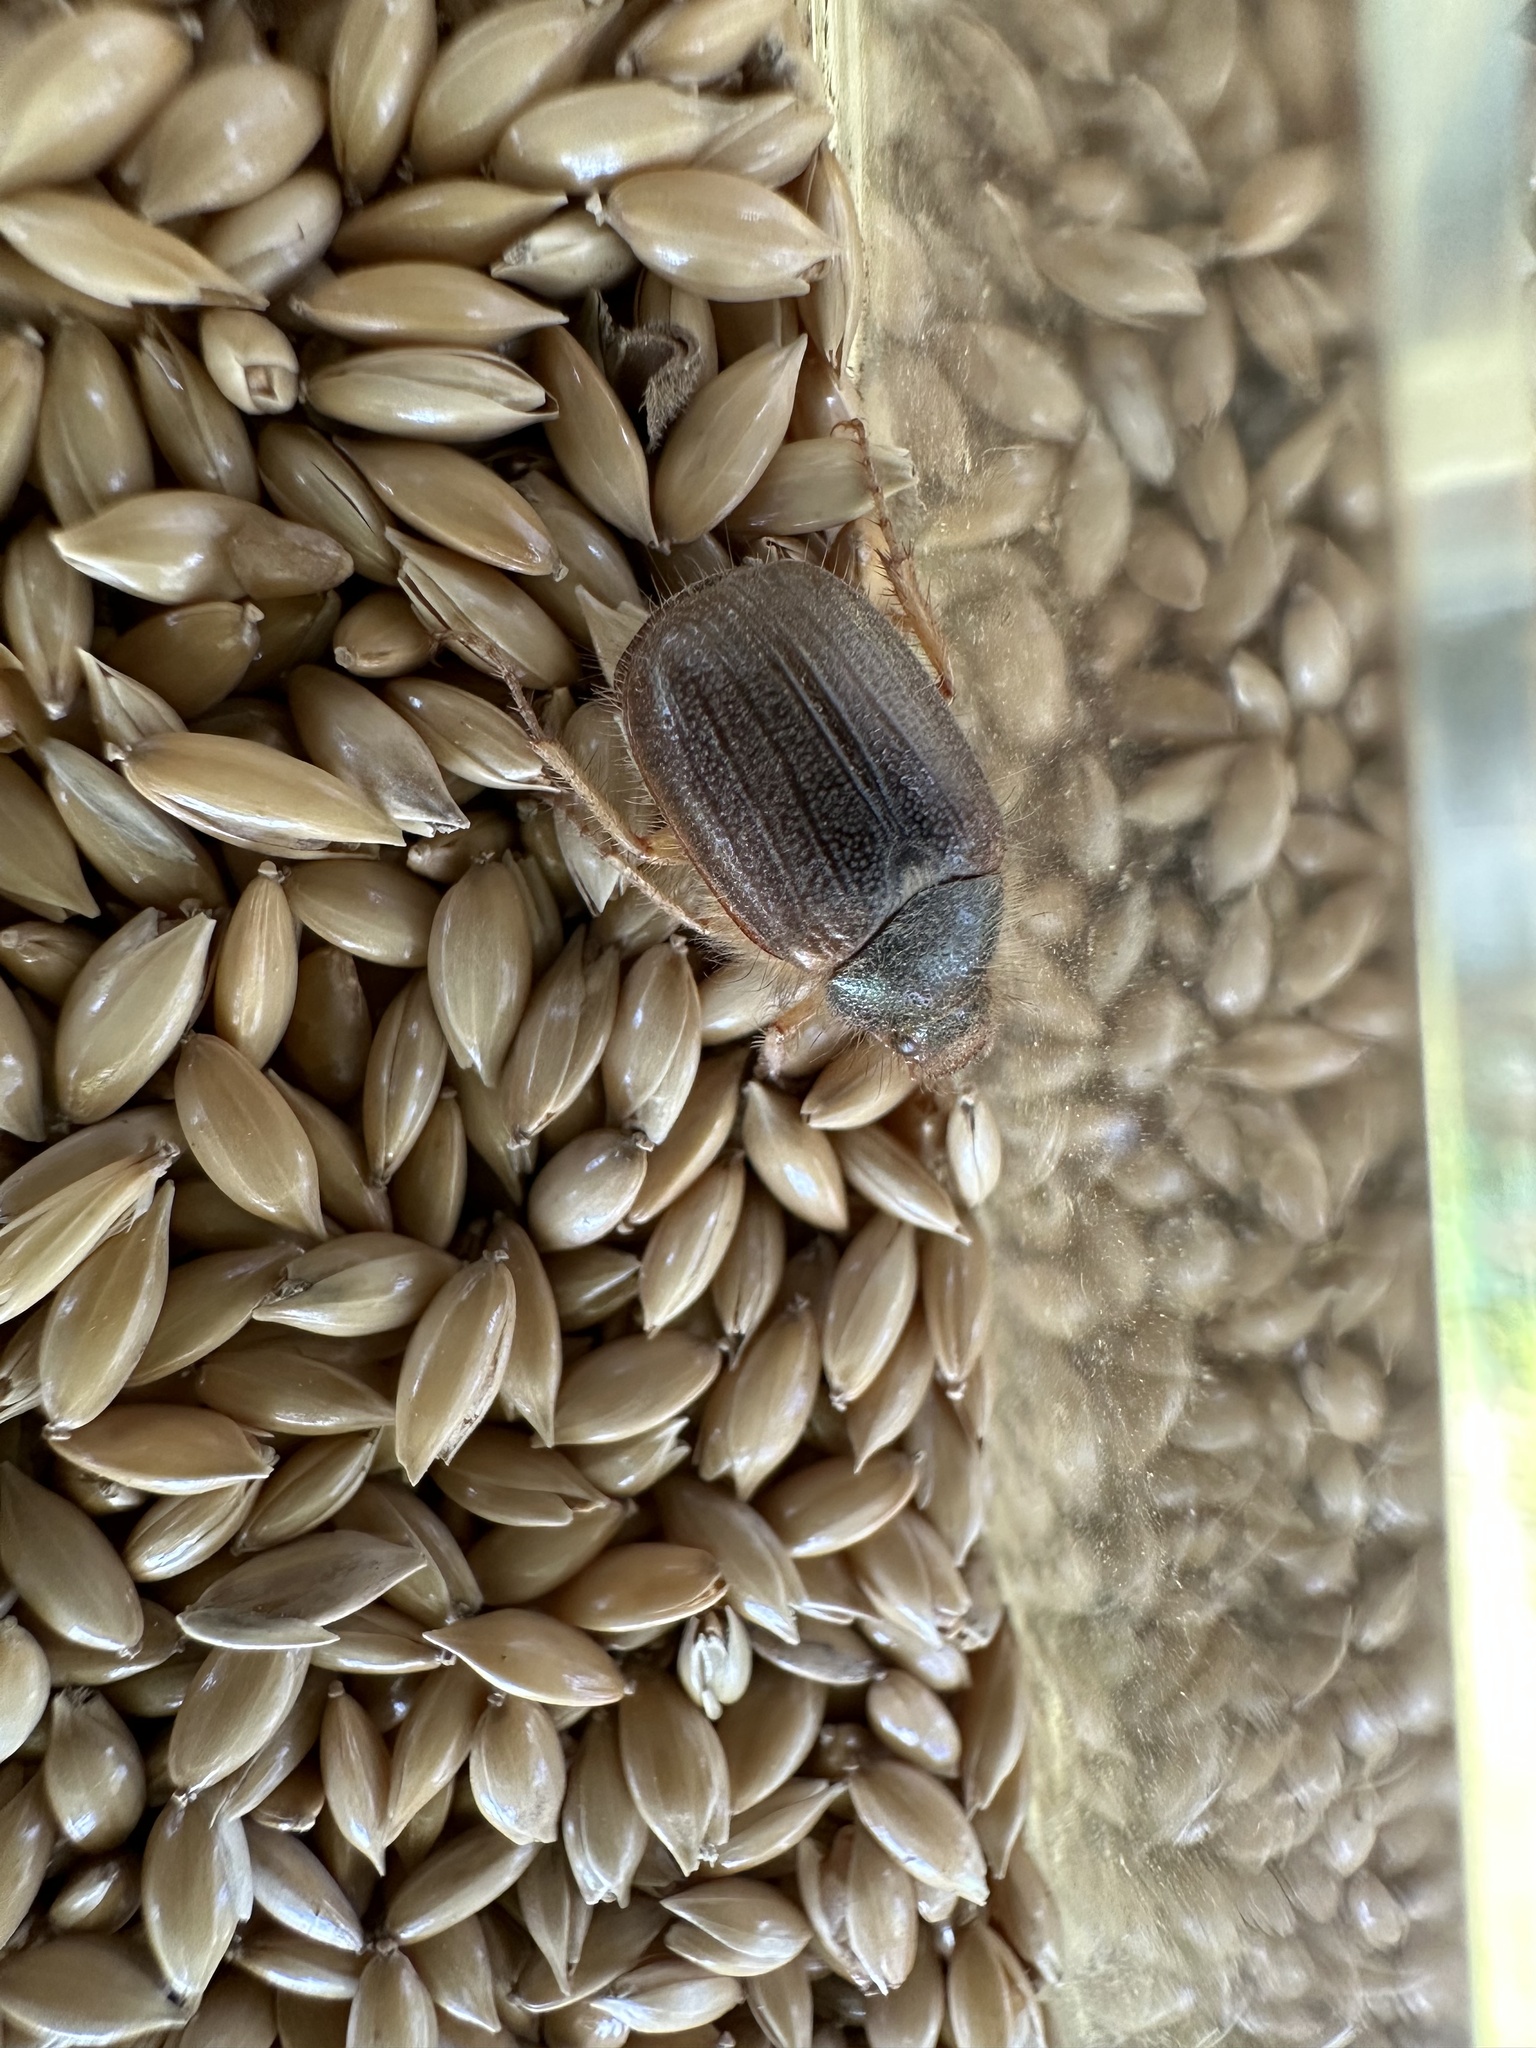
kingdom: Animalia
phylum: Arthropoda
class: Insecta
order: Coleoptera
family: Scarabaeidae
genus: Phytholaema
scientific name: Phytholaema herrmanni
